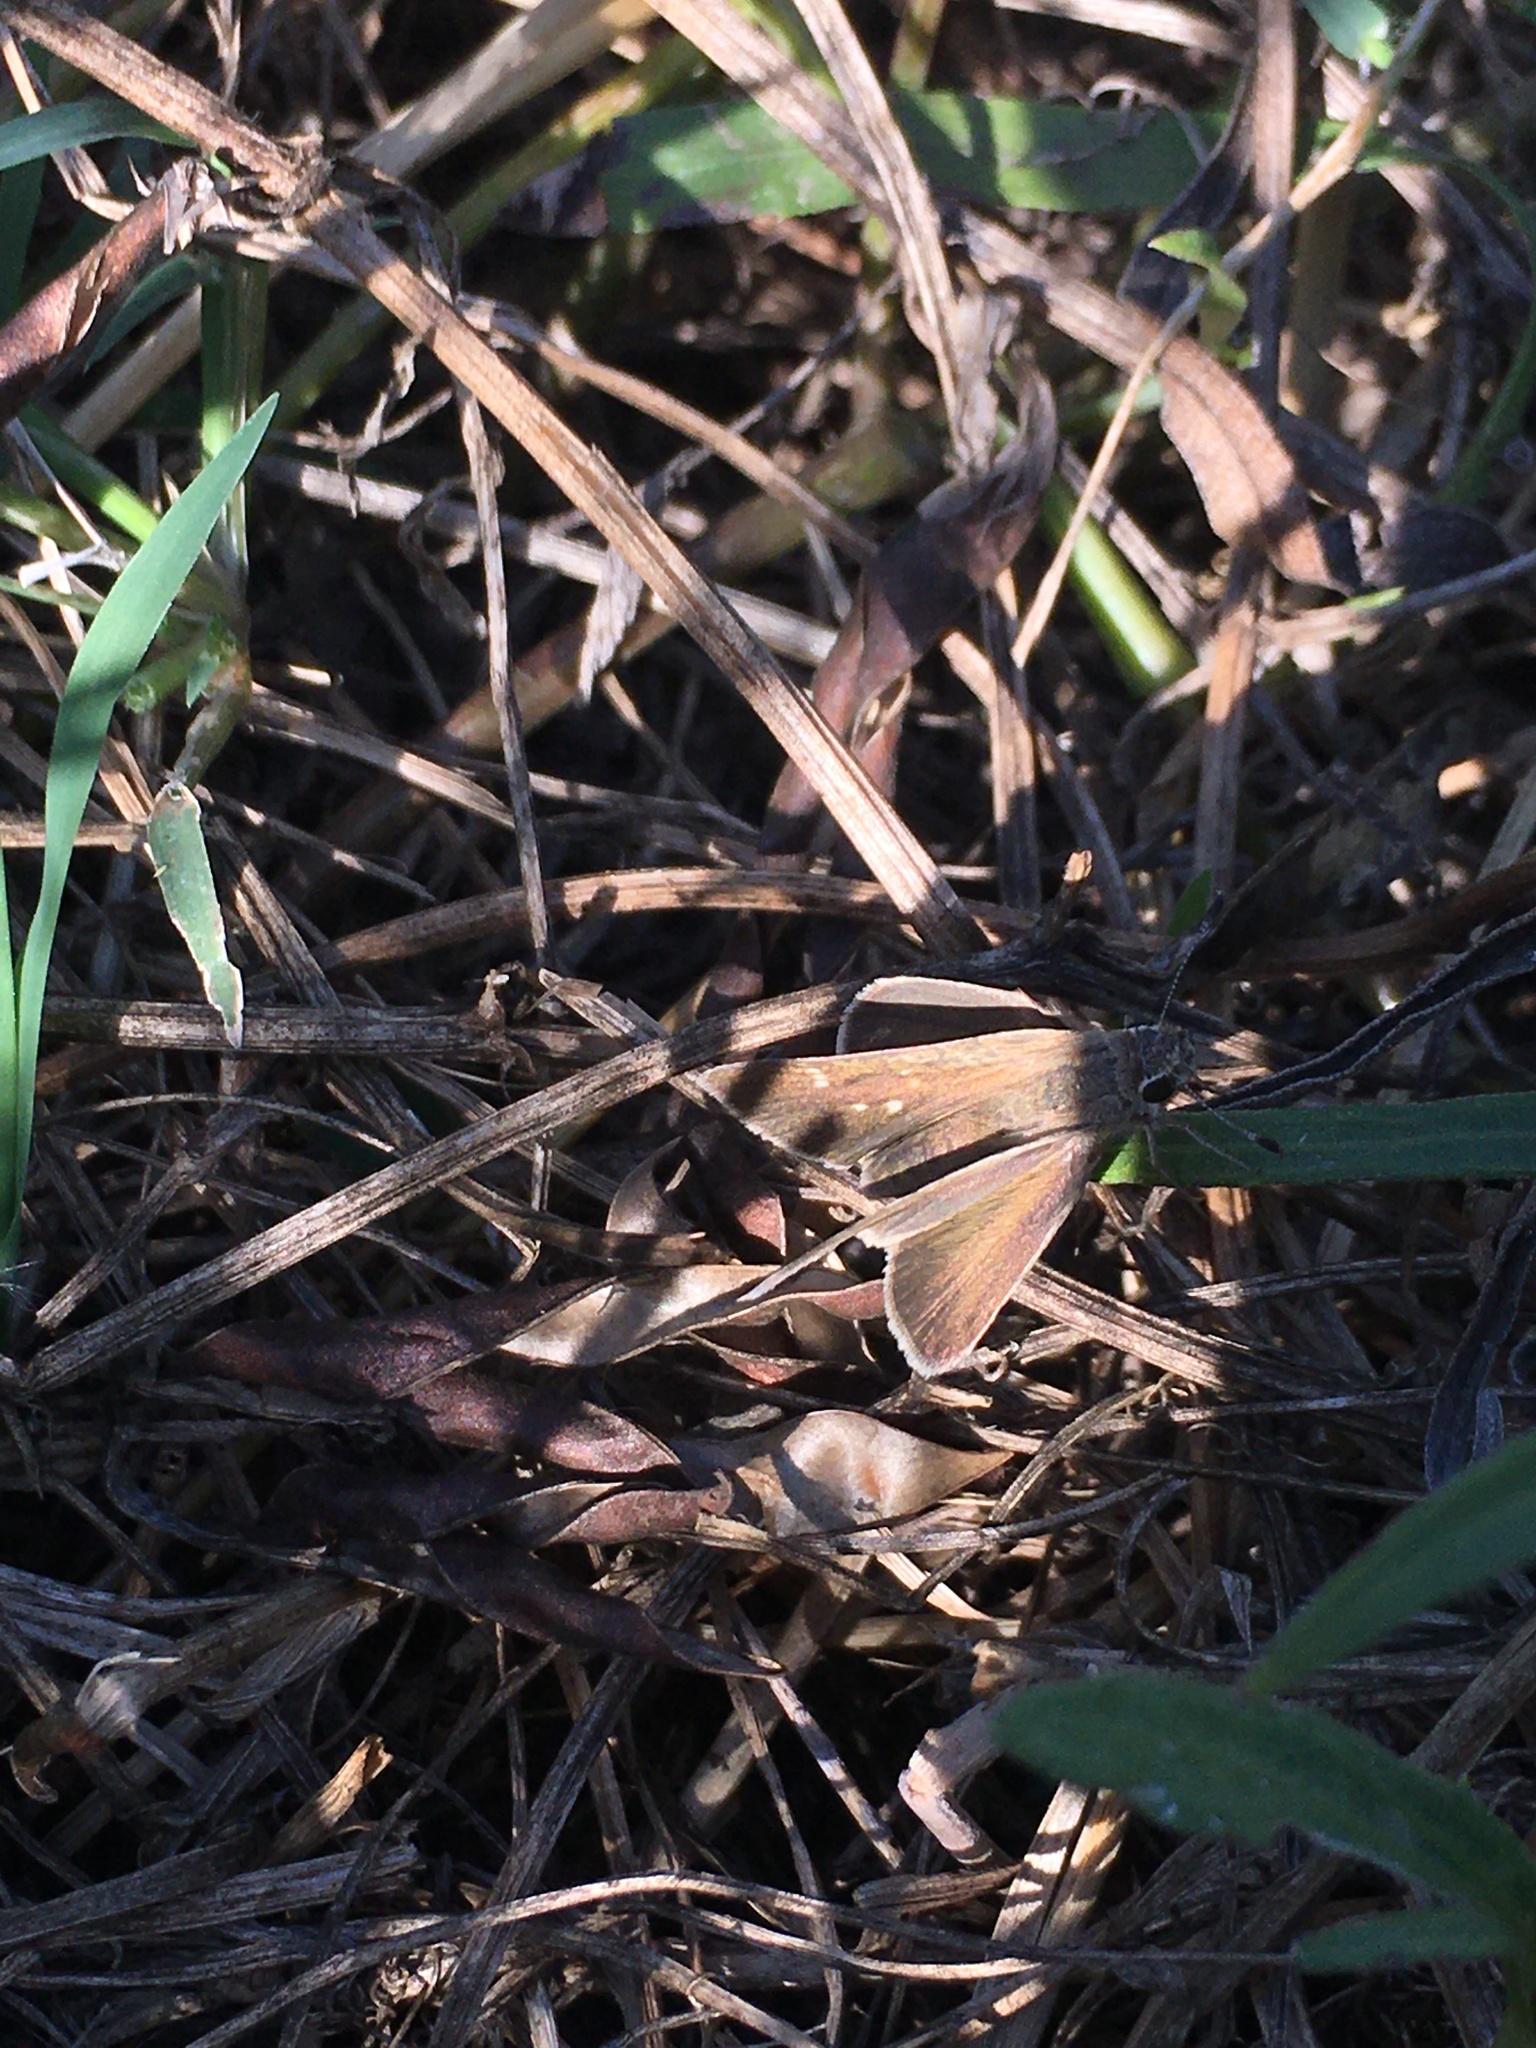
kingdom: Animalia
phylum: Arthropoda
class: Insecta
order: Lepidoptera
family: Hesperiidae
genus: Lerodea
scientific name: Lerodea eufala
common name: Eufala skipper
